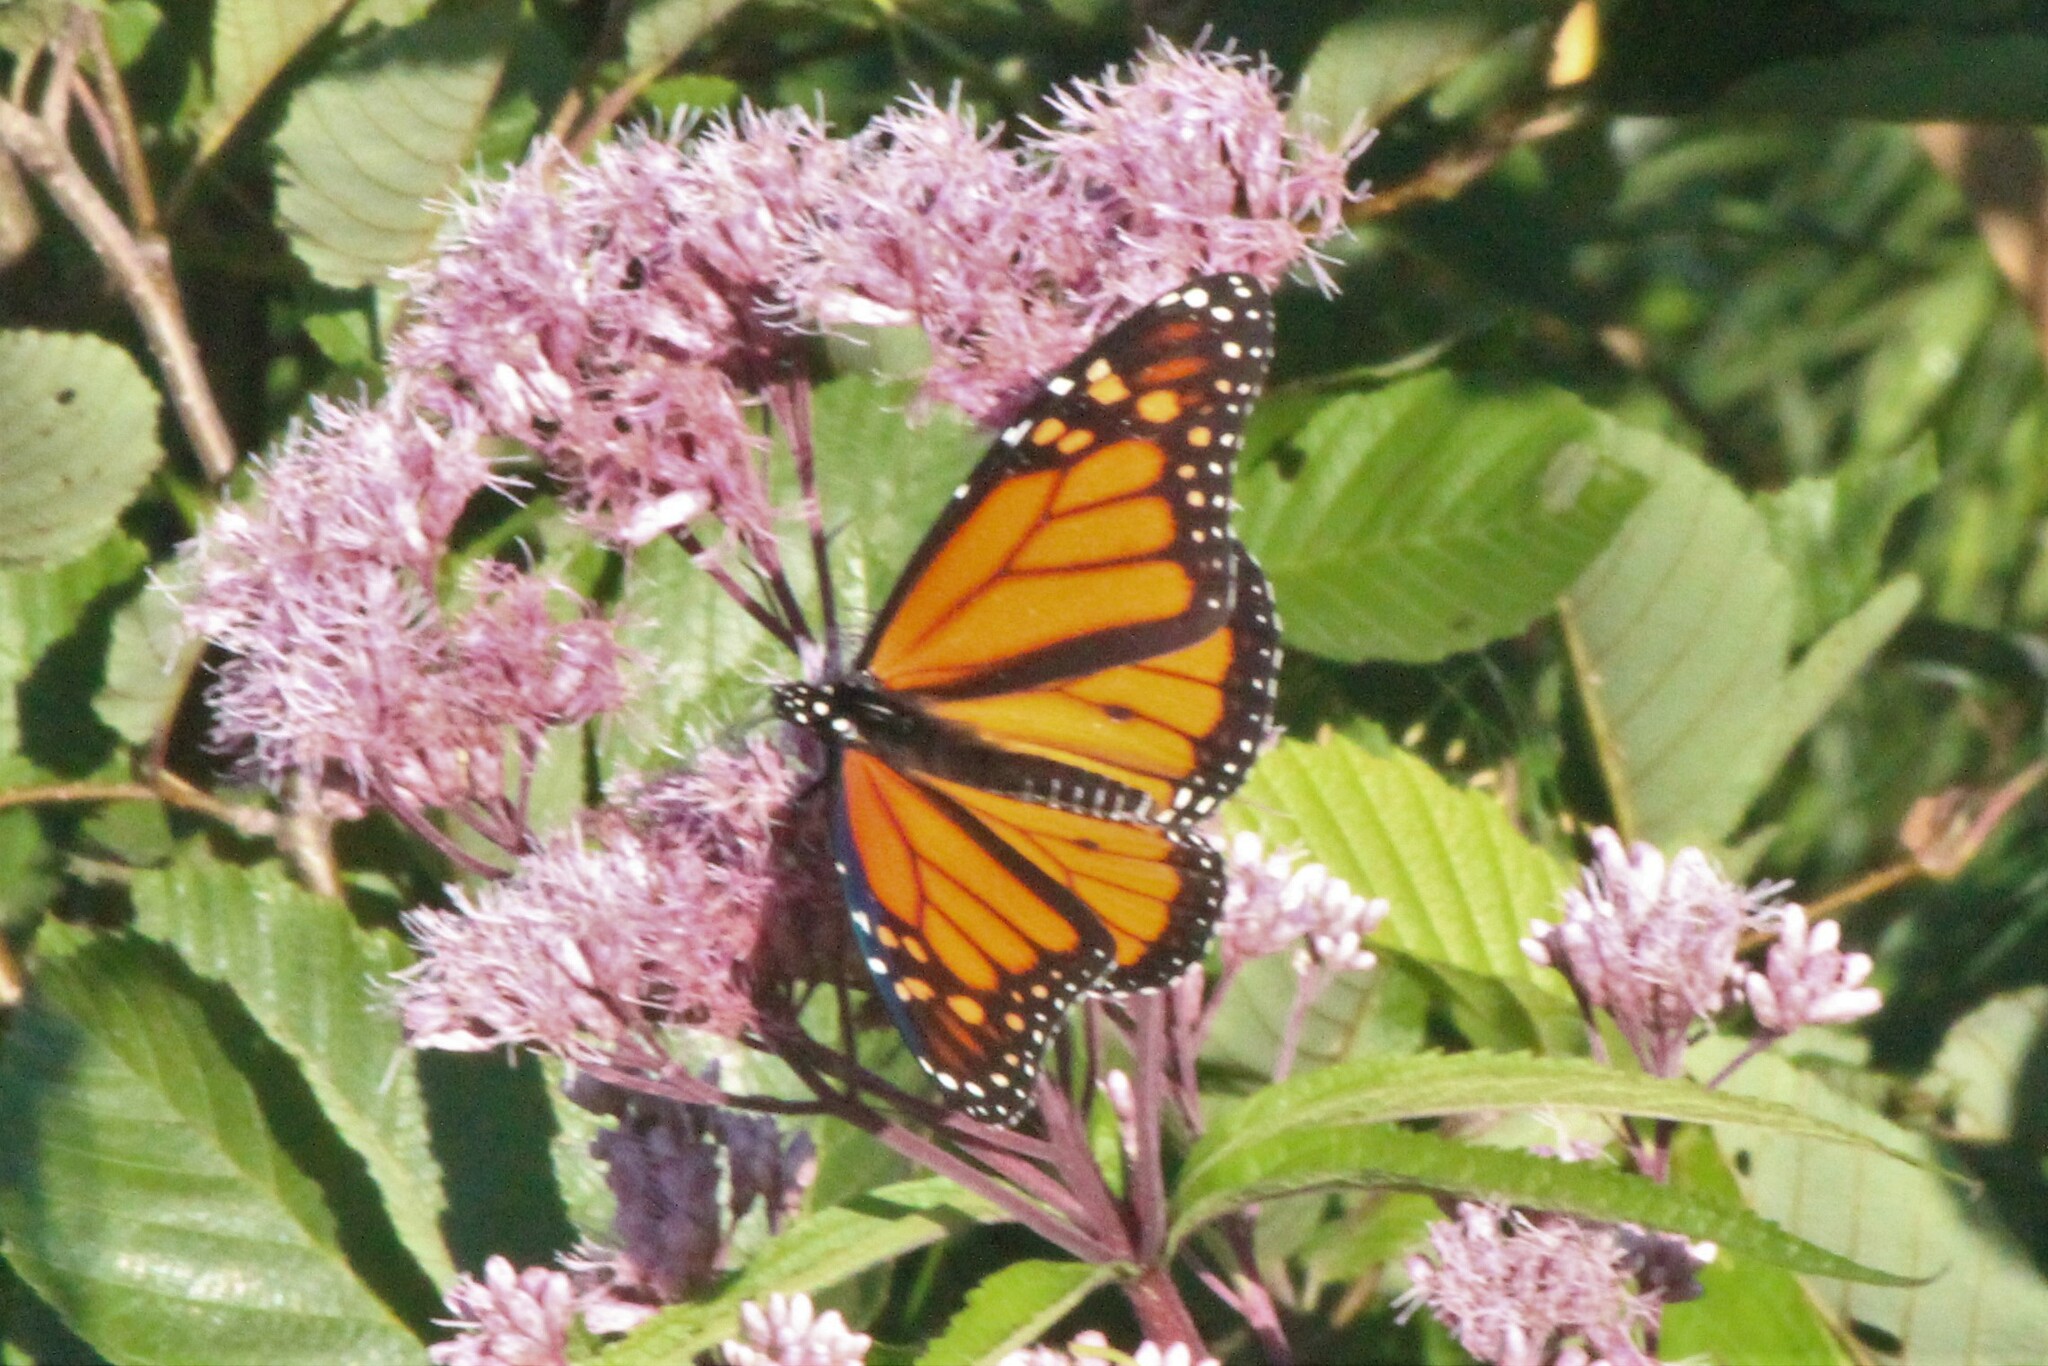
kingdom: Animalia
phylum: Arthropoda
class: Insecta
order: Lepidoptera
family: Nymphalidae
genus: Danaus
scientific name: Danaus plexippus
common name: Monarch
